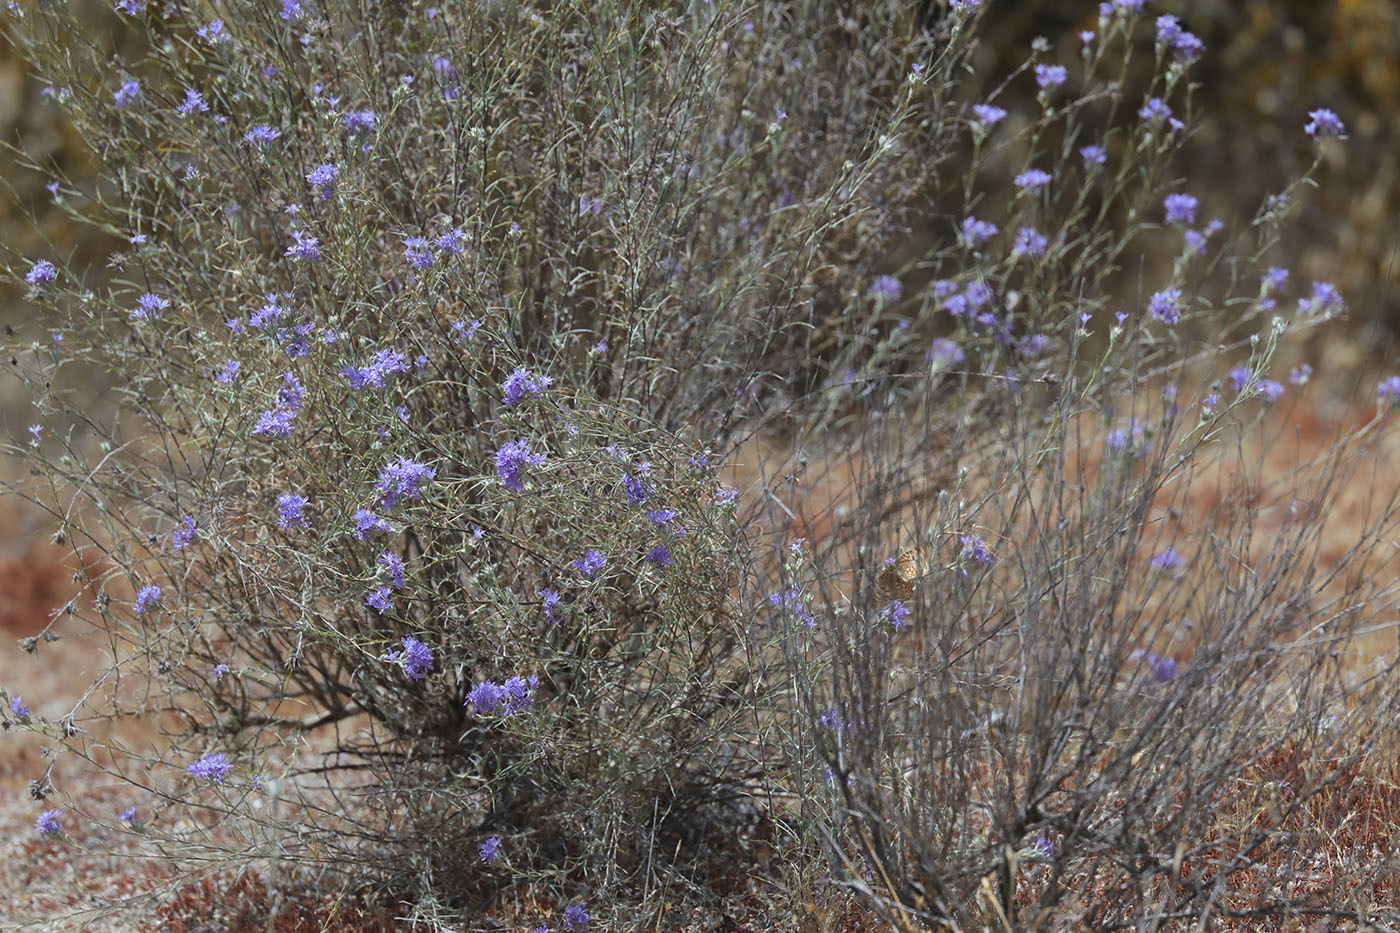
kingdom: Plantae
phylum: Tracheophyta
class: Magnoliopsida
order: Ericales
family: Polemoniaceae
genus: Eriastrum
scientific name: Eriastrum densifolium
